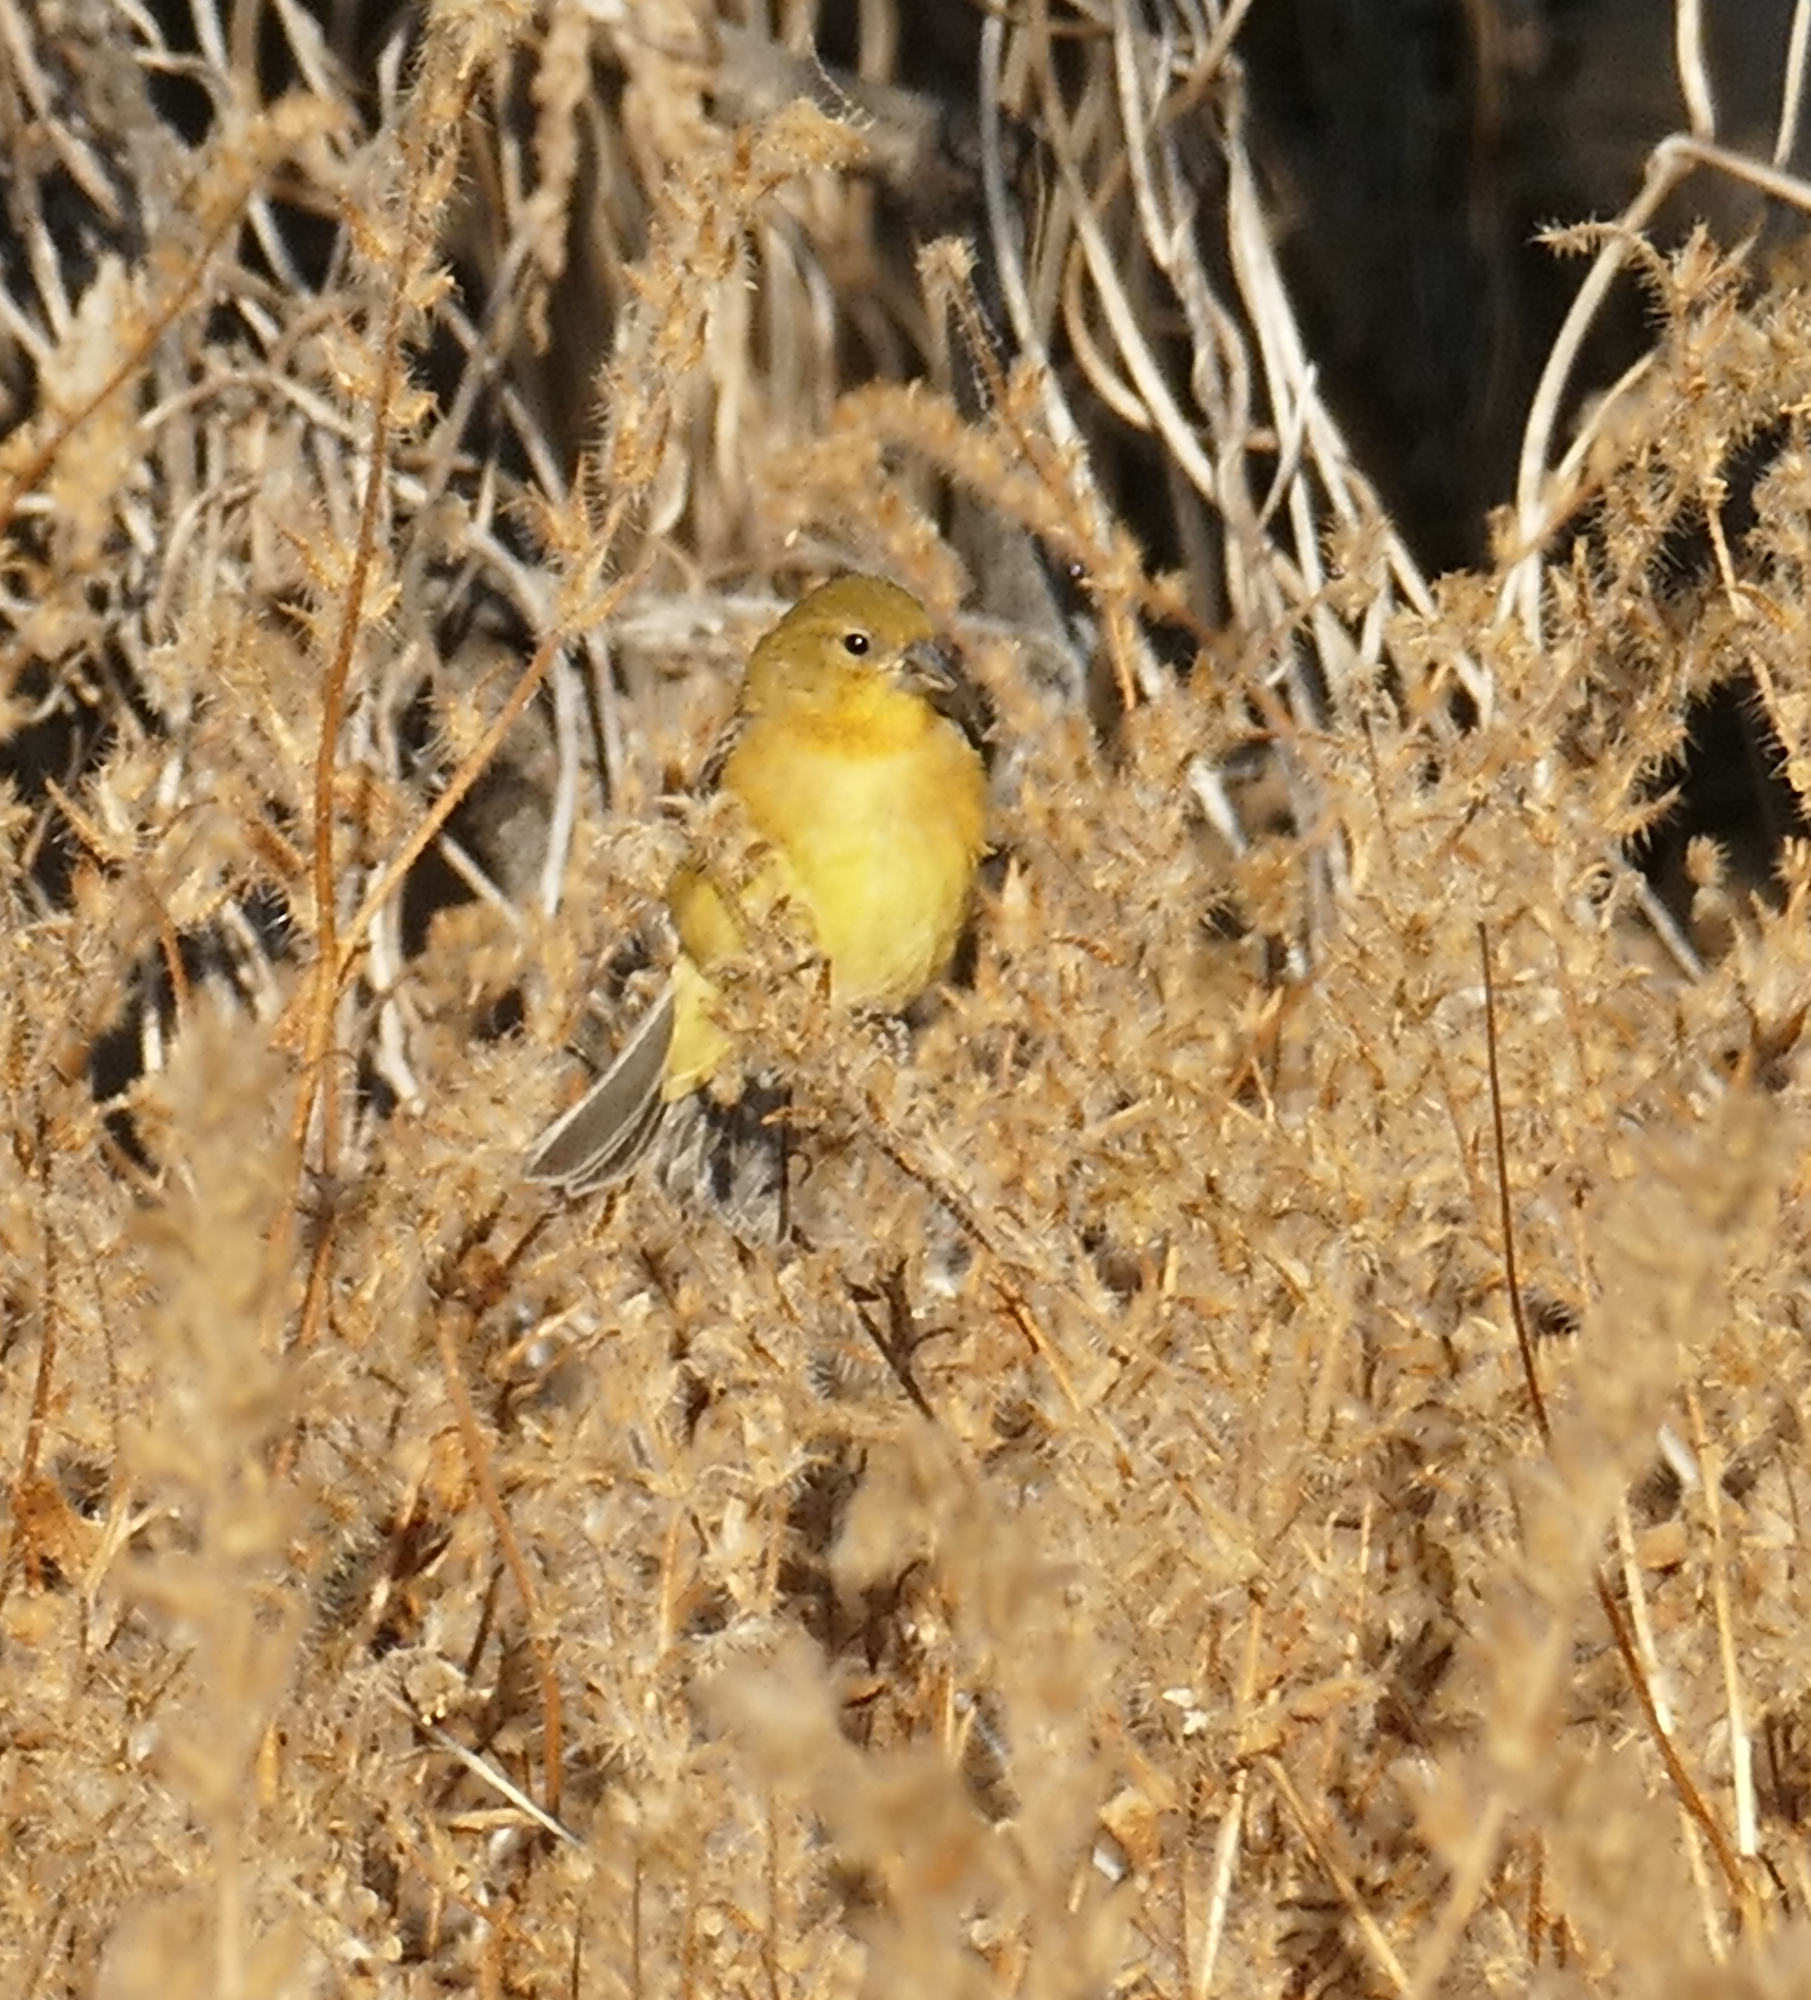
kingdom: Animalia
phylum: Chordata
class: Aves
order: Passeriformes
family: Fringillidae
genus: Spinus
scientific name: Spinus psaltria
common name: Lesser goldfinch
